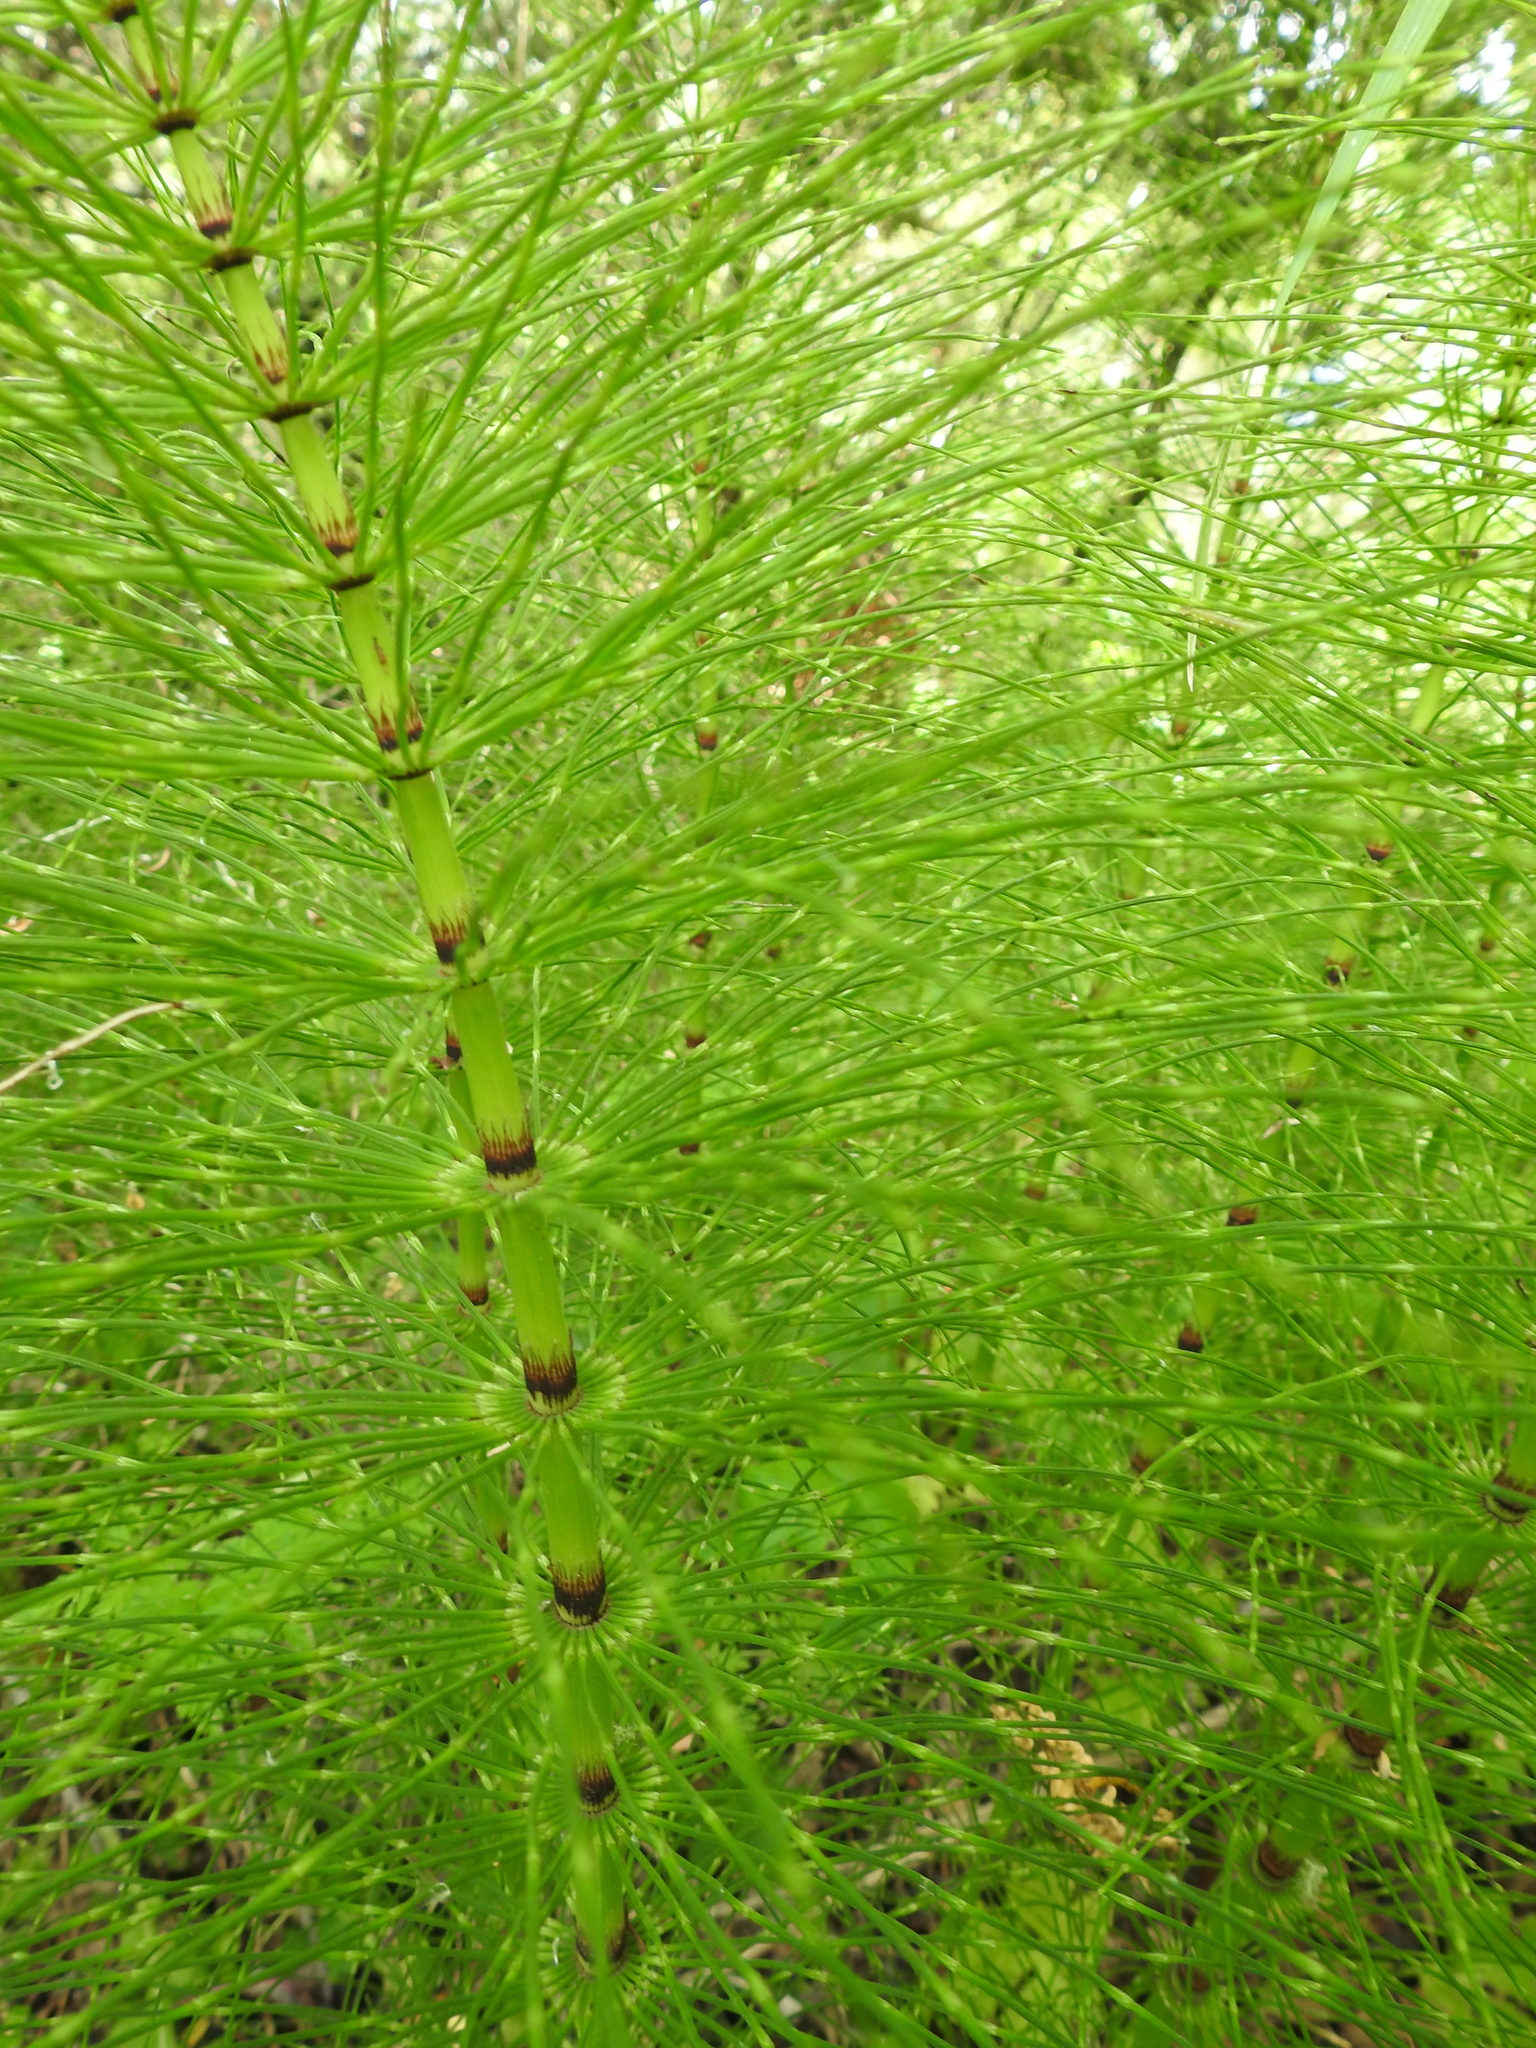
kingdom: Plantae
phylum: Tracheophyta
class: Polypodiopsida
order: Equisetales
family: Equisetaceae
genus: Equisetum
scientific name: Equisetum telmateia
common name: Great horsetail
